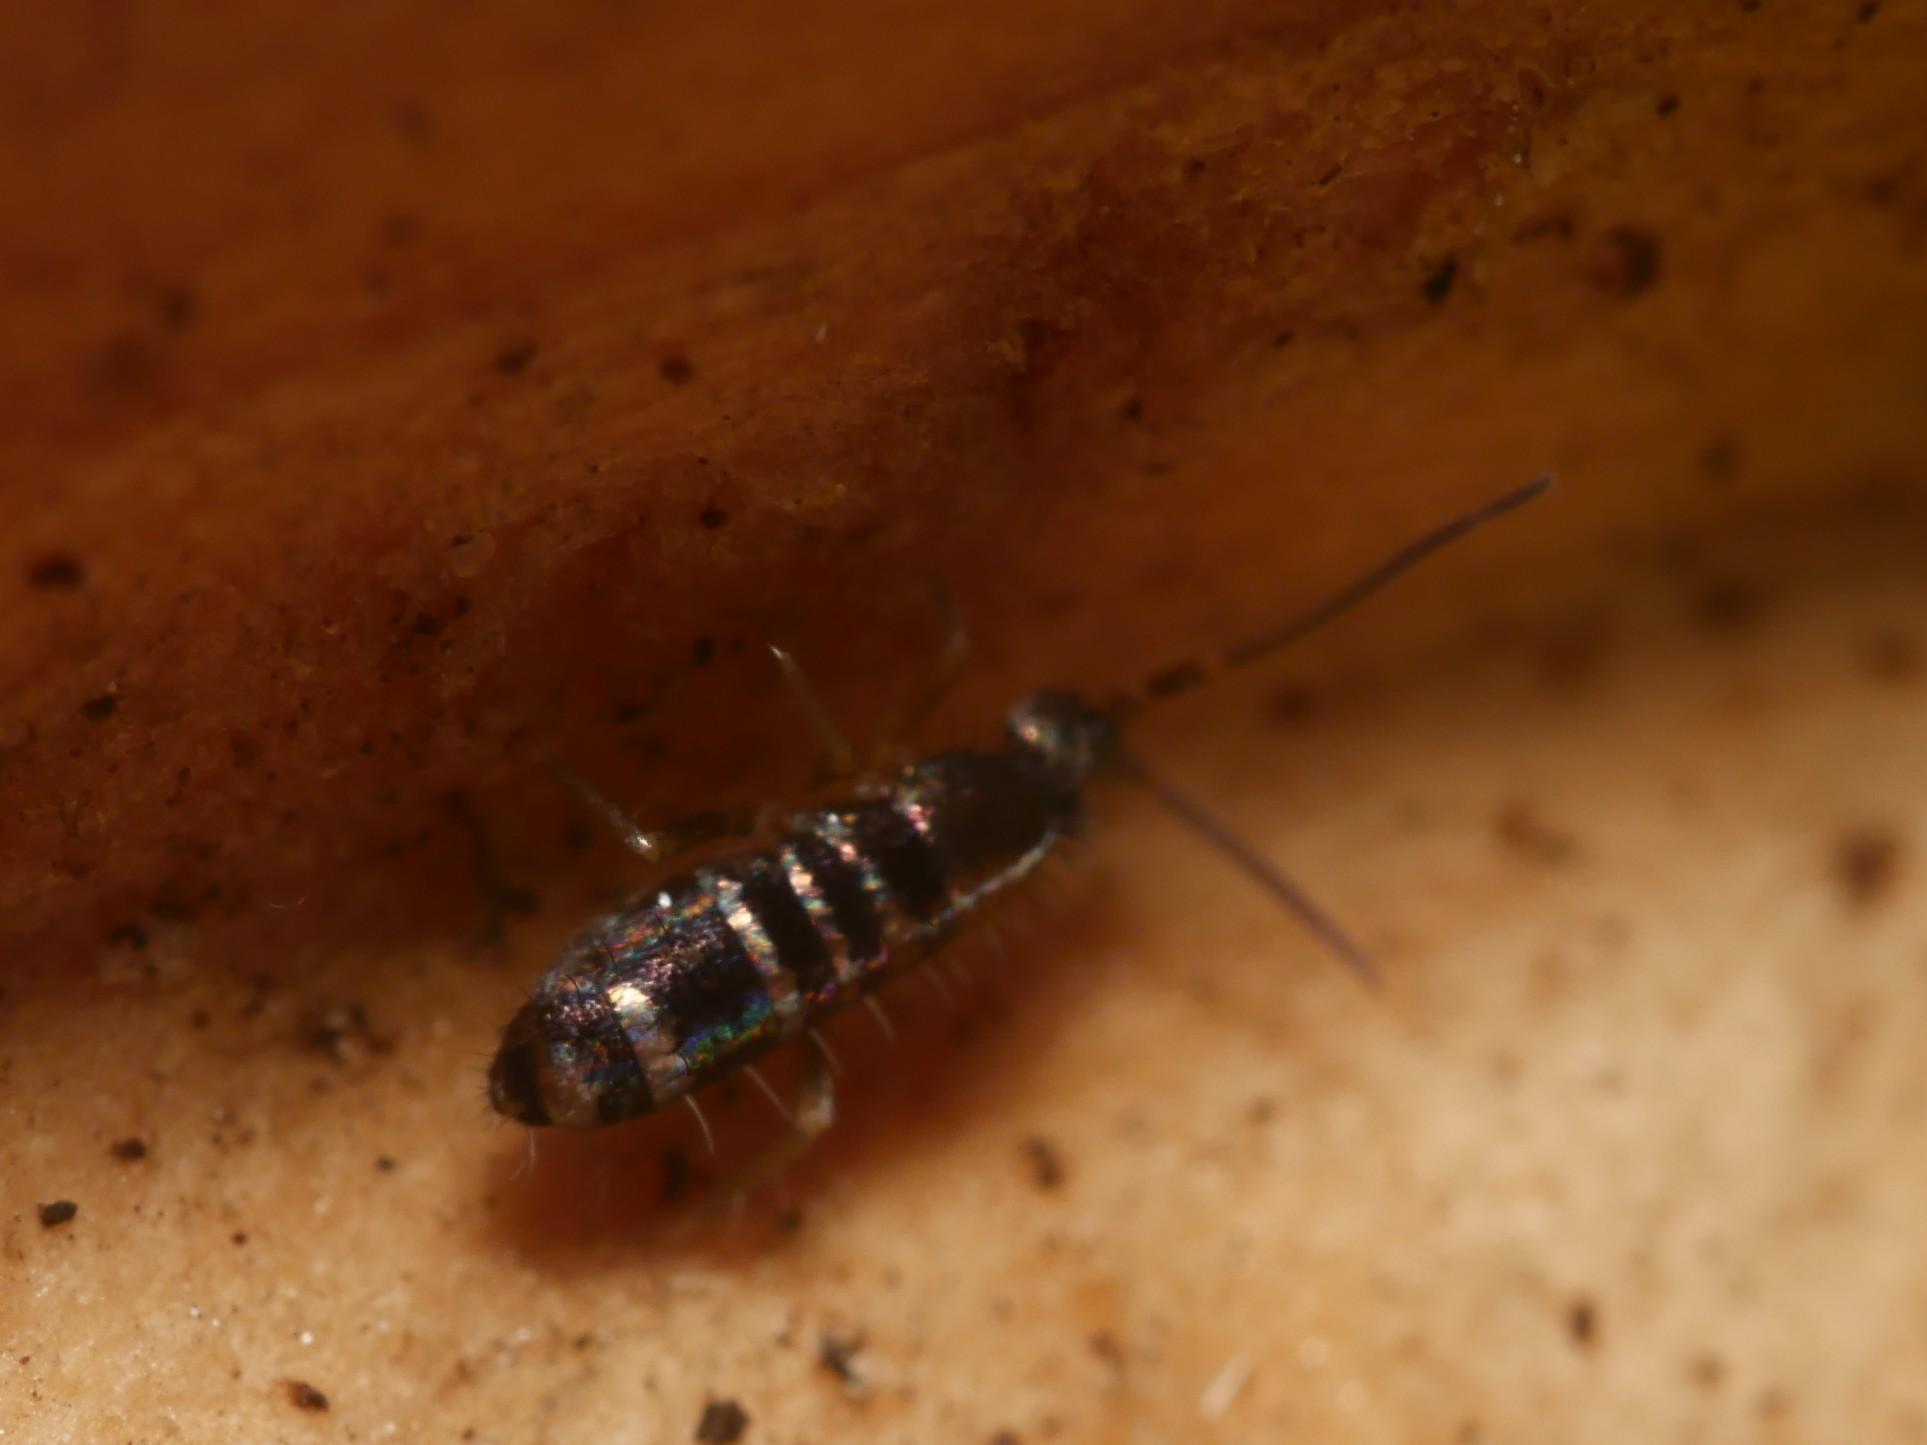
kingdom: Animalia
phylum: Arthropoda
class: Collembola
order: Entomobryomorpha
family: Tomoceridae
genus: Tomocerus
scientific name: Tomocerus vulgaris
